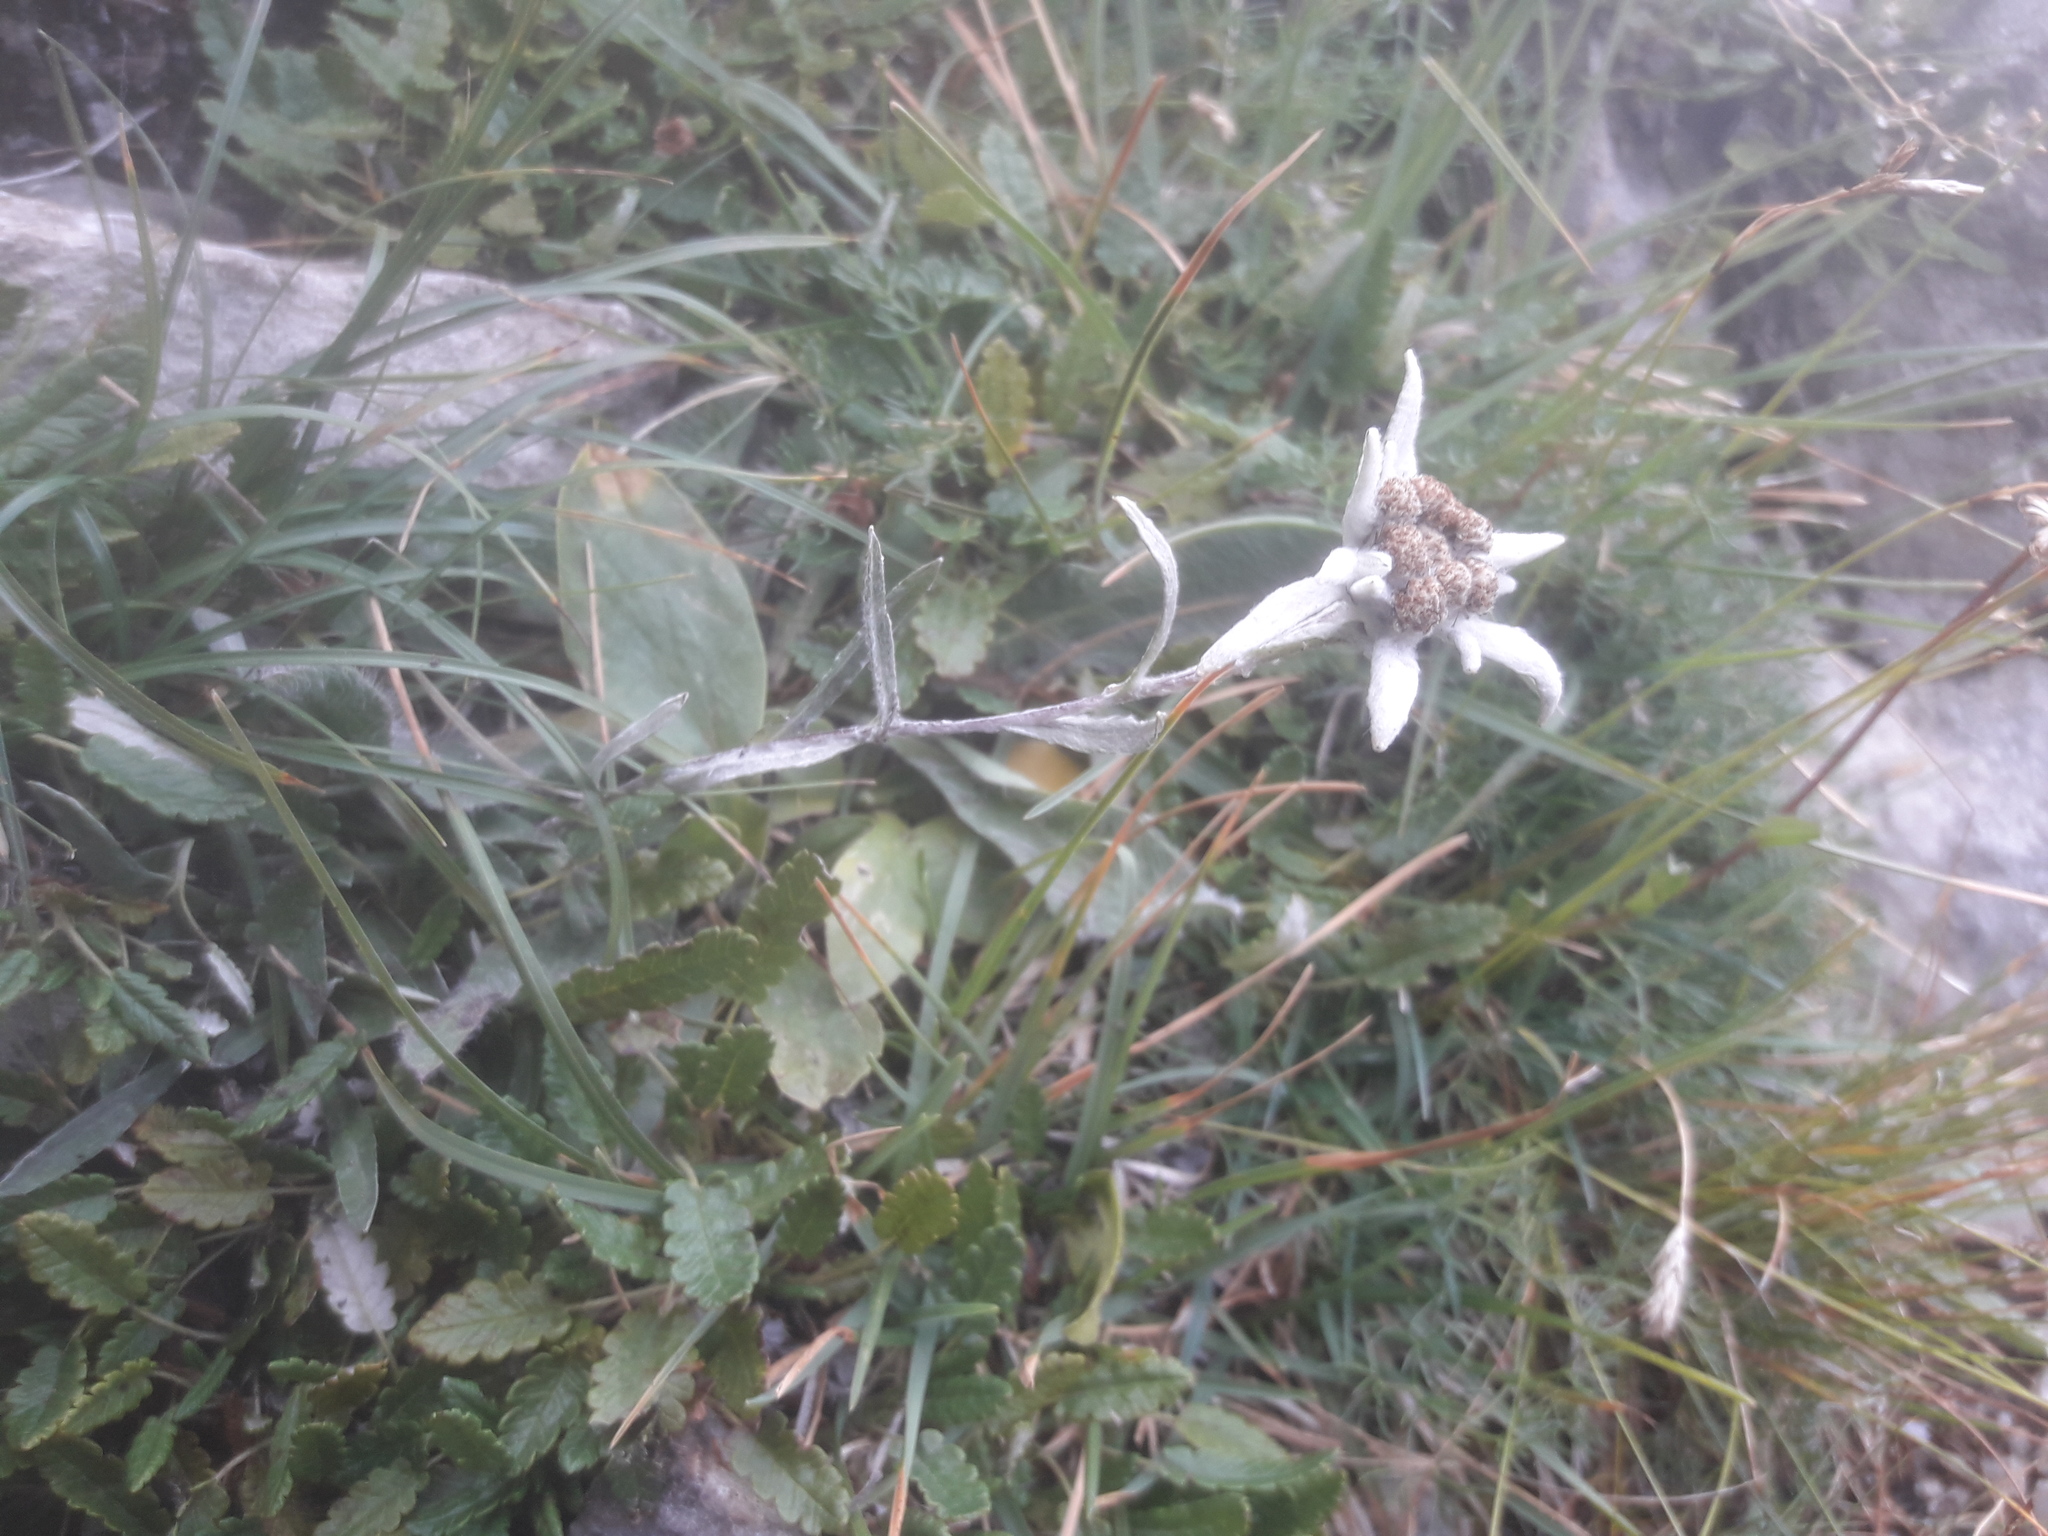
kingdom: Plantae
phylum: Tracheophyta
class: Magnoliopsida
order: Asterales
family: Asteraceae
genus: Leontopodium
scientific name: Leontopodium nivale
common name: Edelweiss
